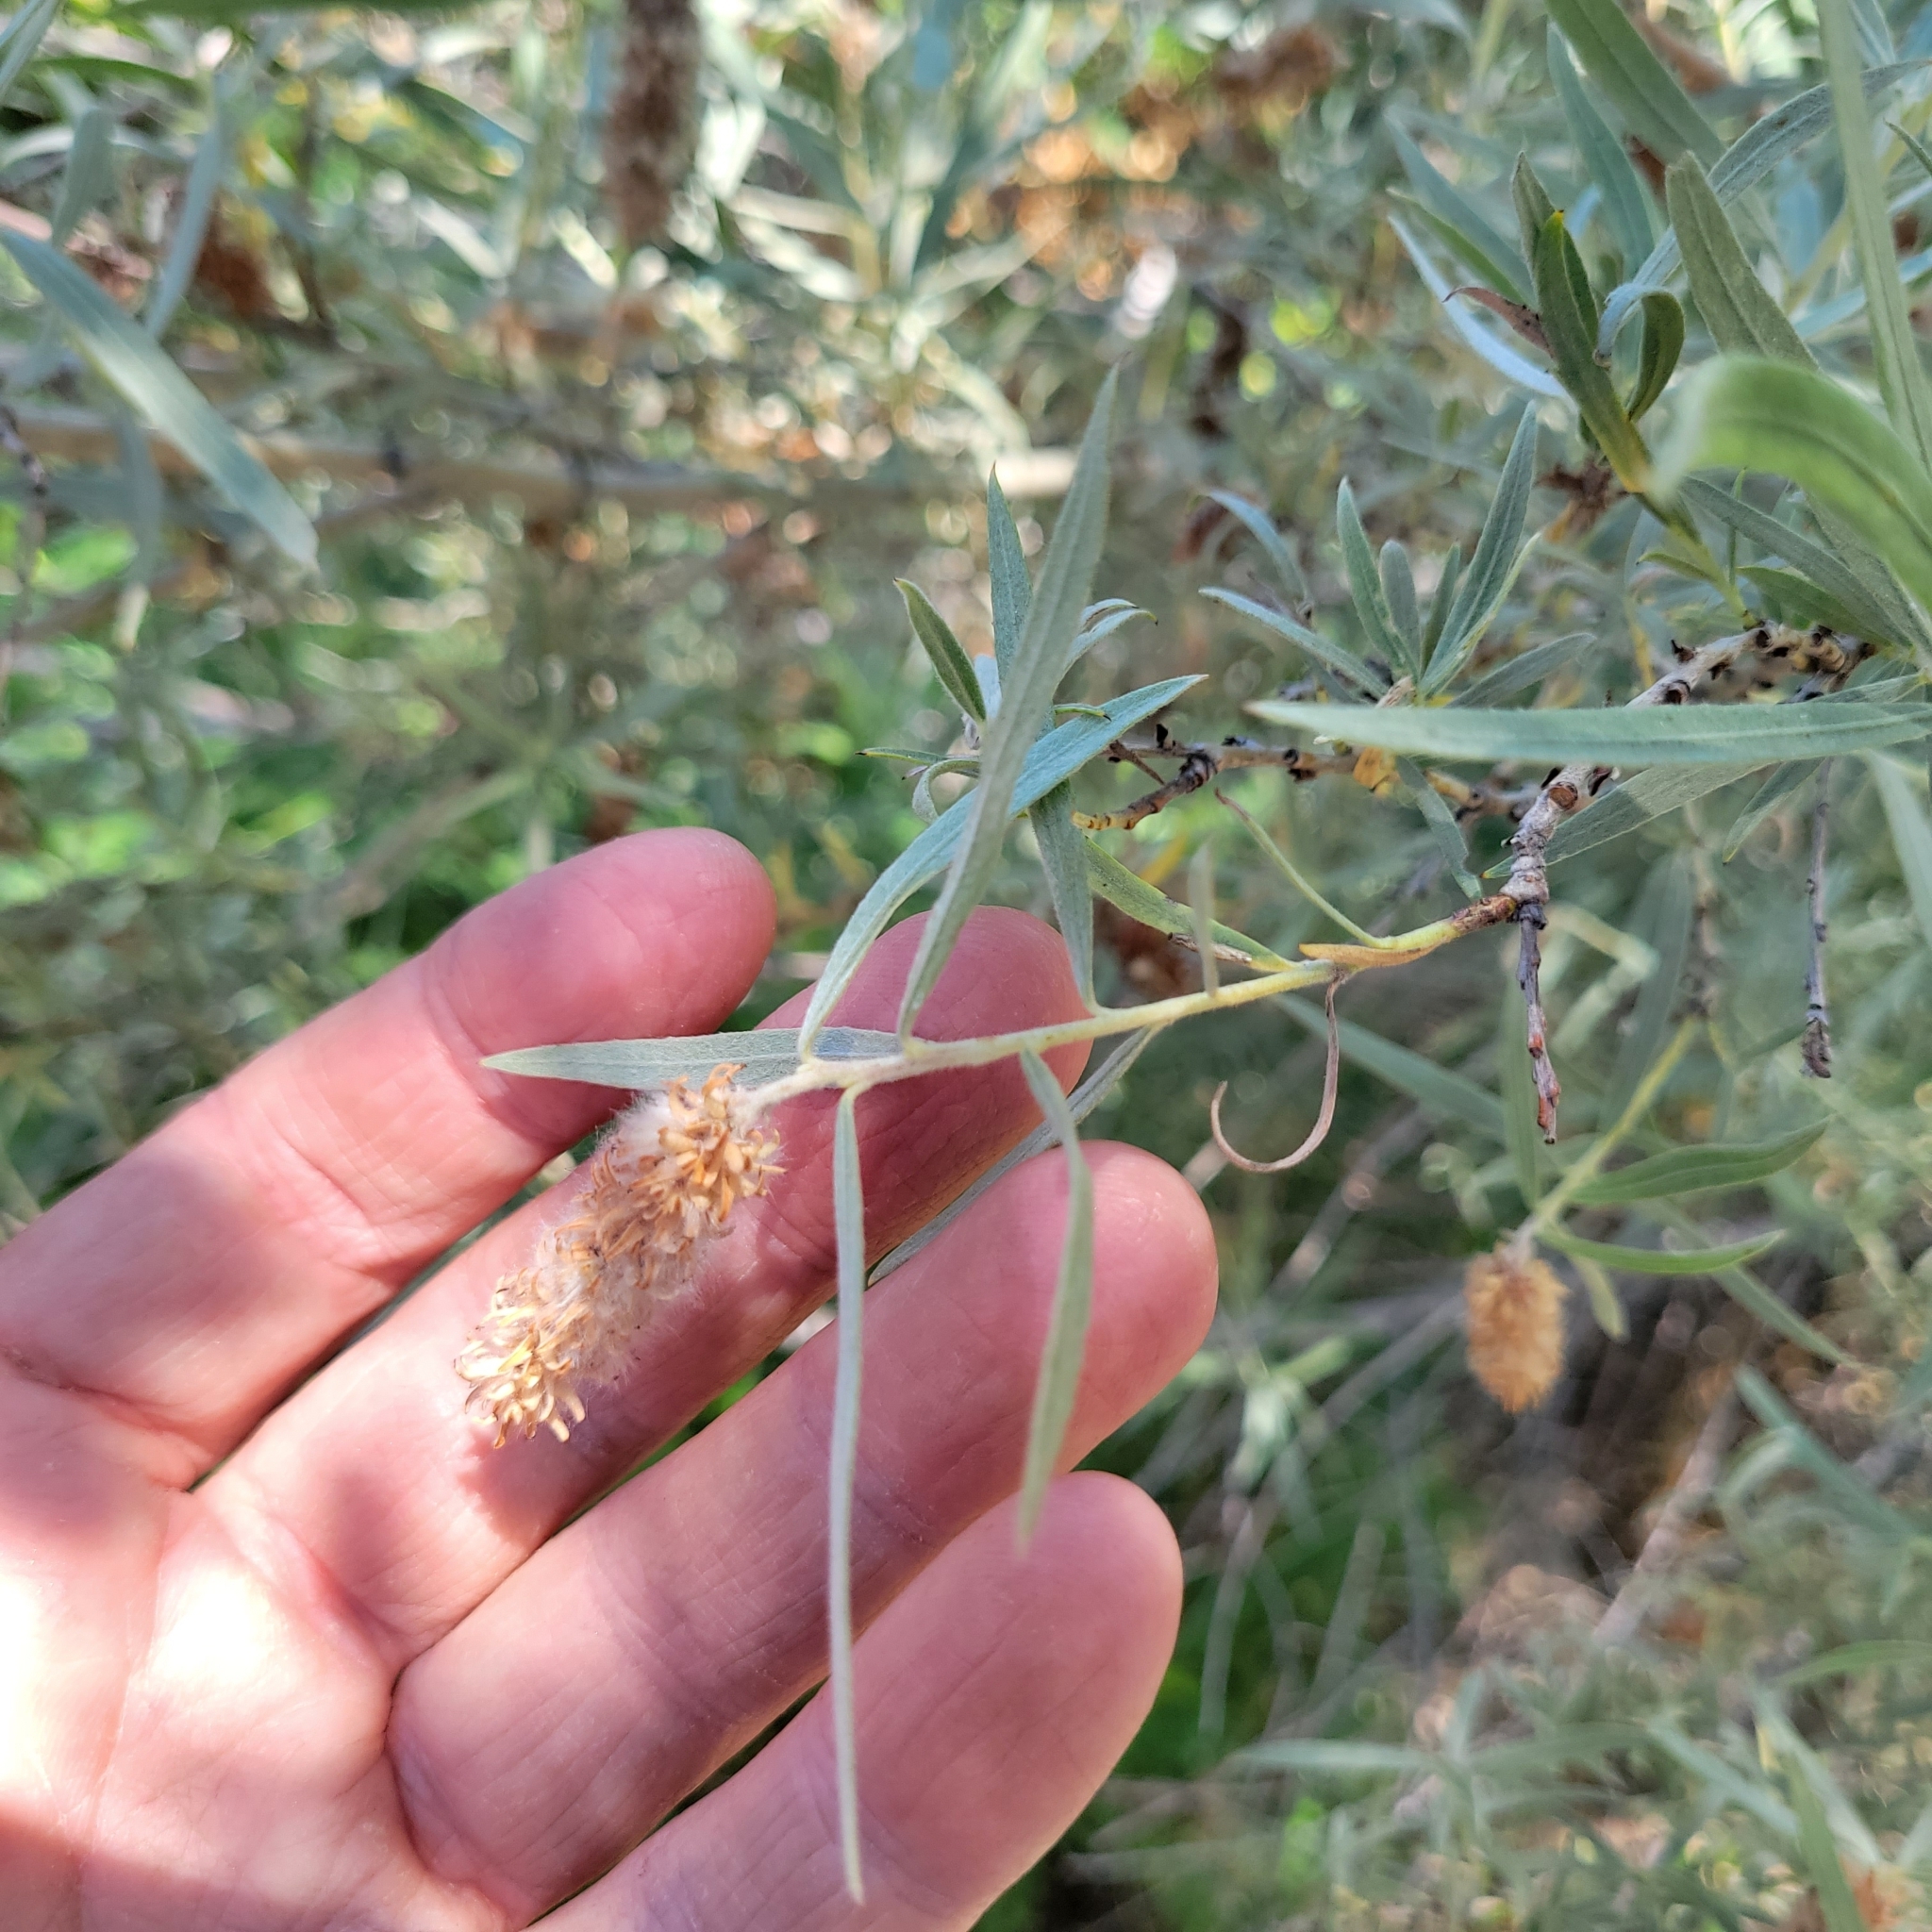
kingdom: Plantae
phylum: Tracheophyta
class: Magnoliopsida
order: Malpighiales
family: Salicaceae
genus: Salix
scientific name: Salix exigua
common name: Coyote willow
